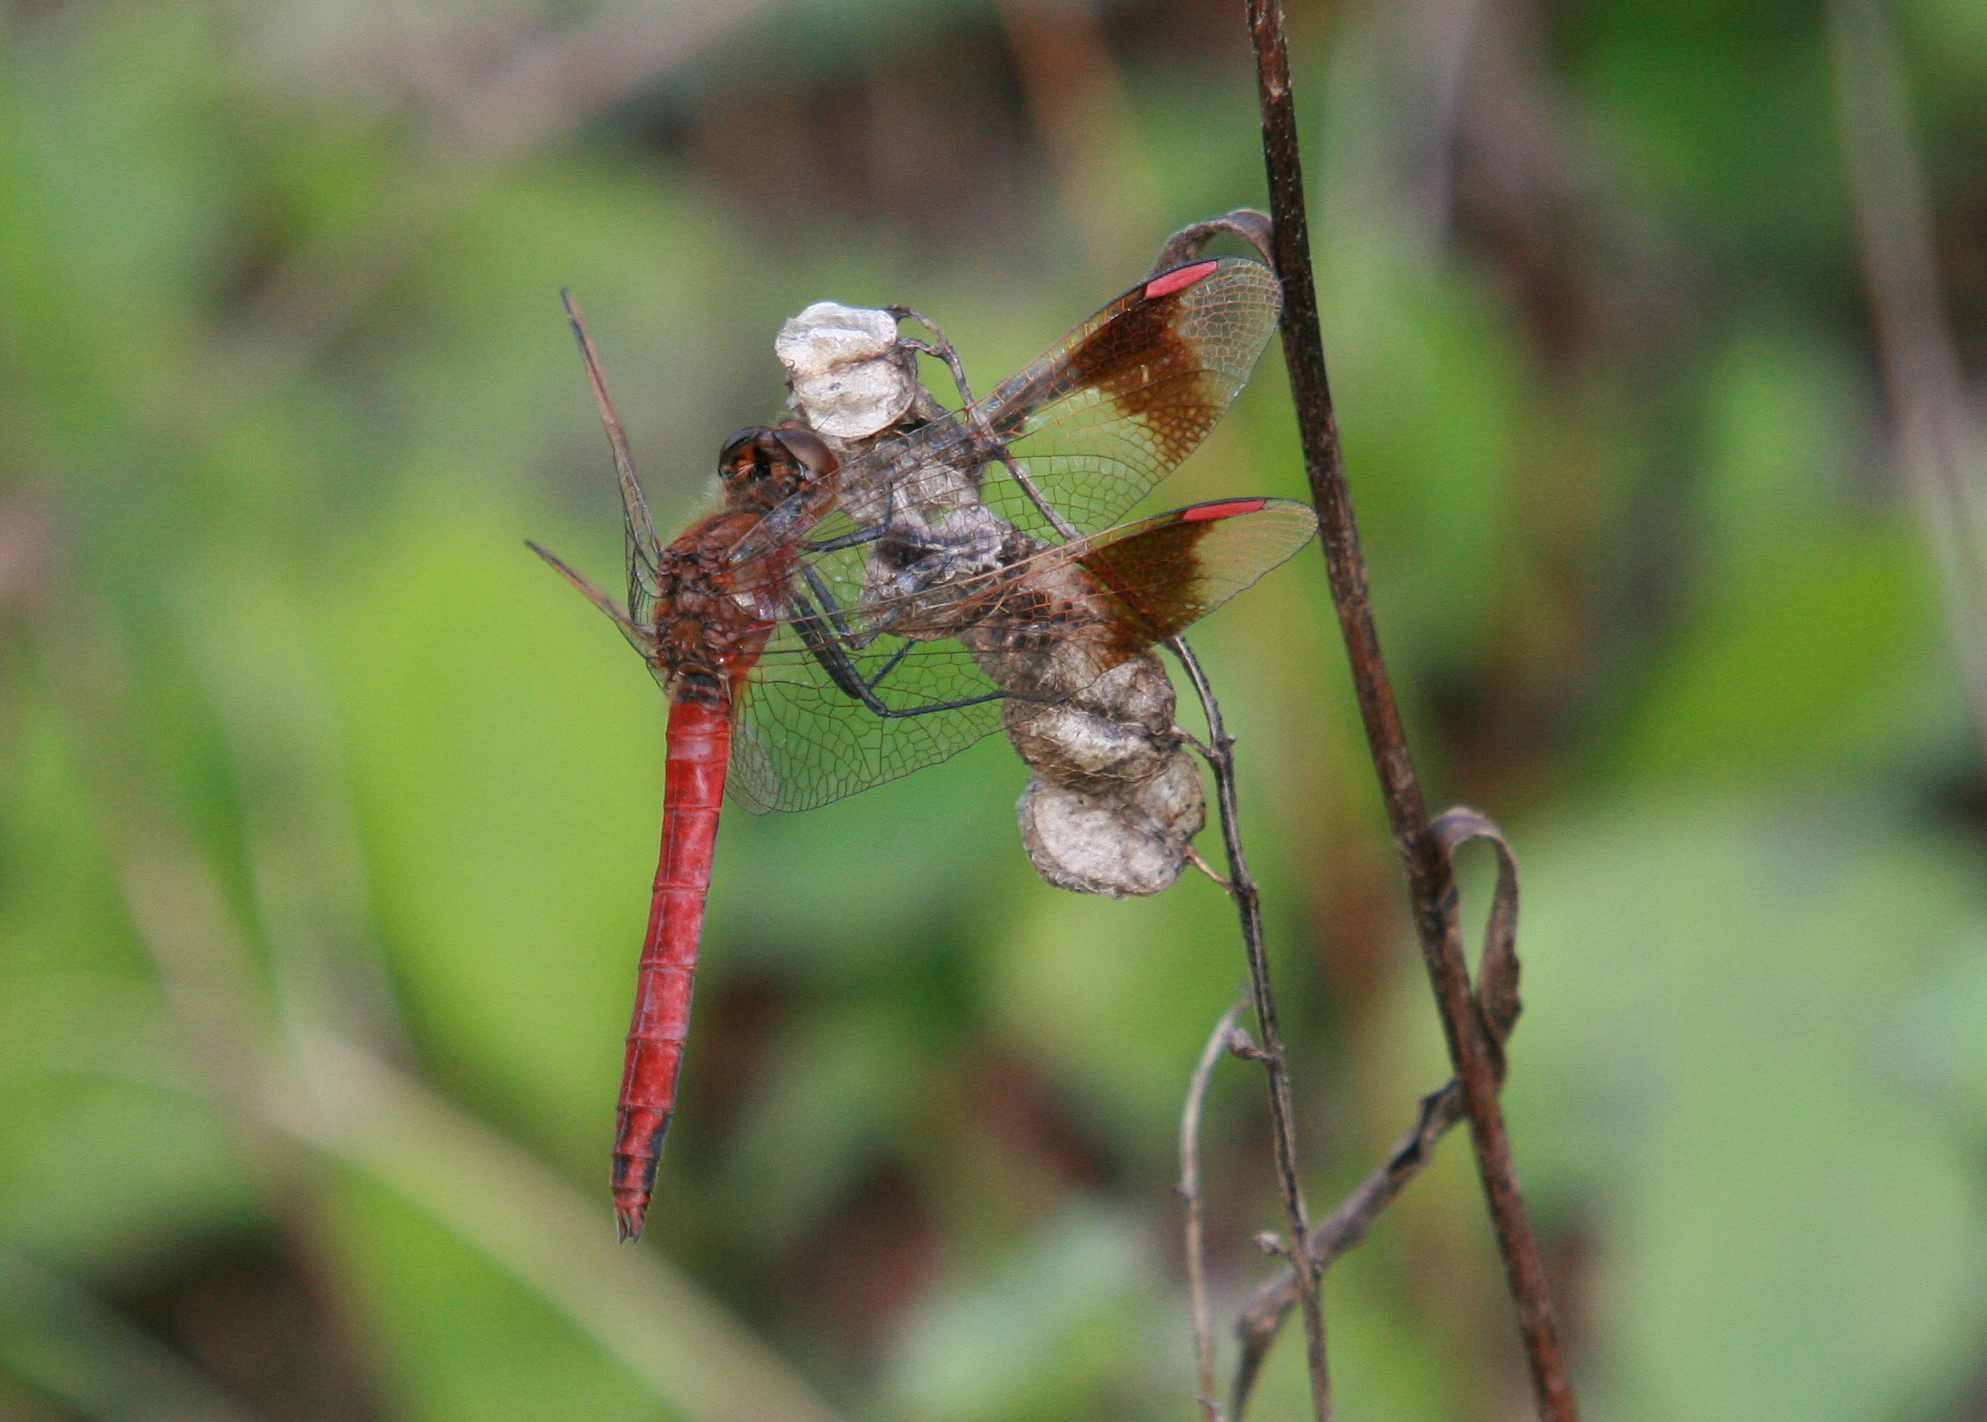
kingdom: Animalia
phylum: Arthropoda
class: Insecta
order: Odonata
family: Libellulidae
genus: Sympetrum
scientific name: Sympetrum pedemontanum
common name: Banded darter
